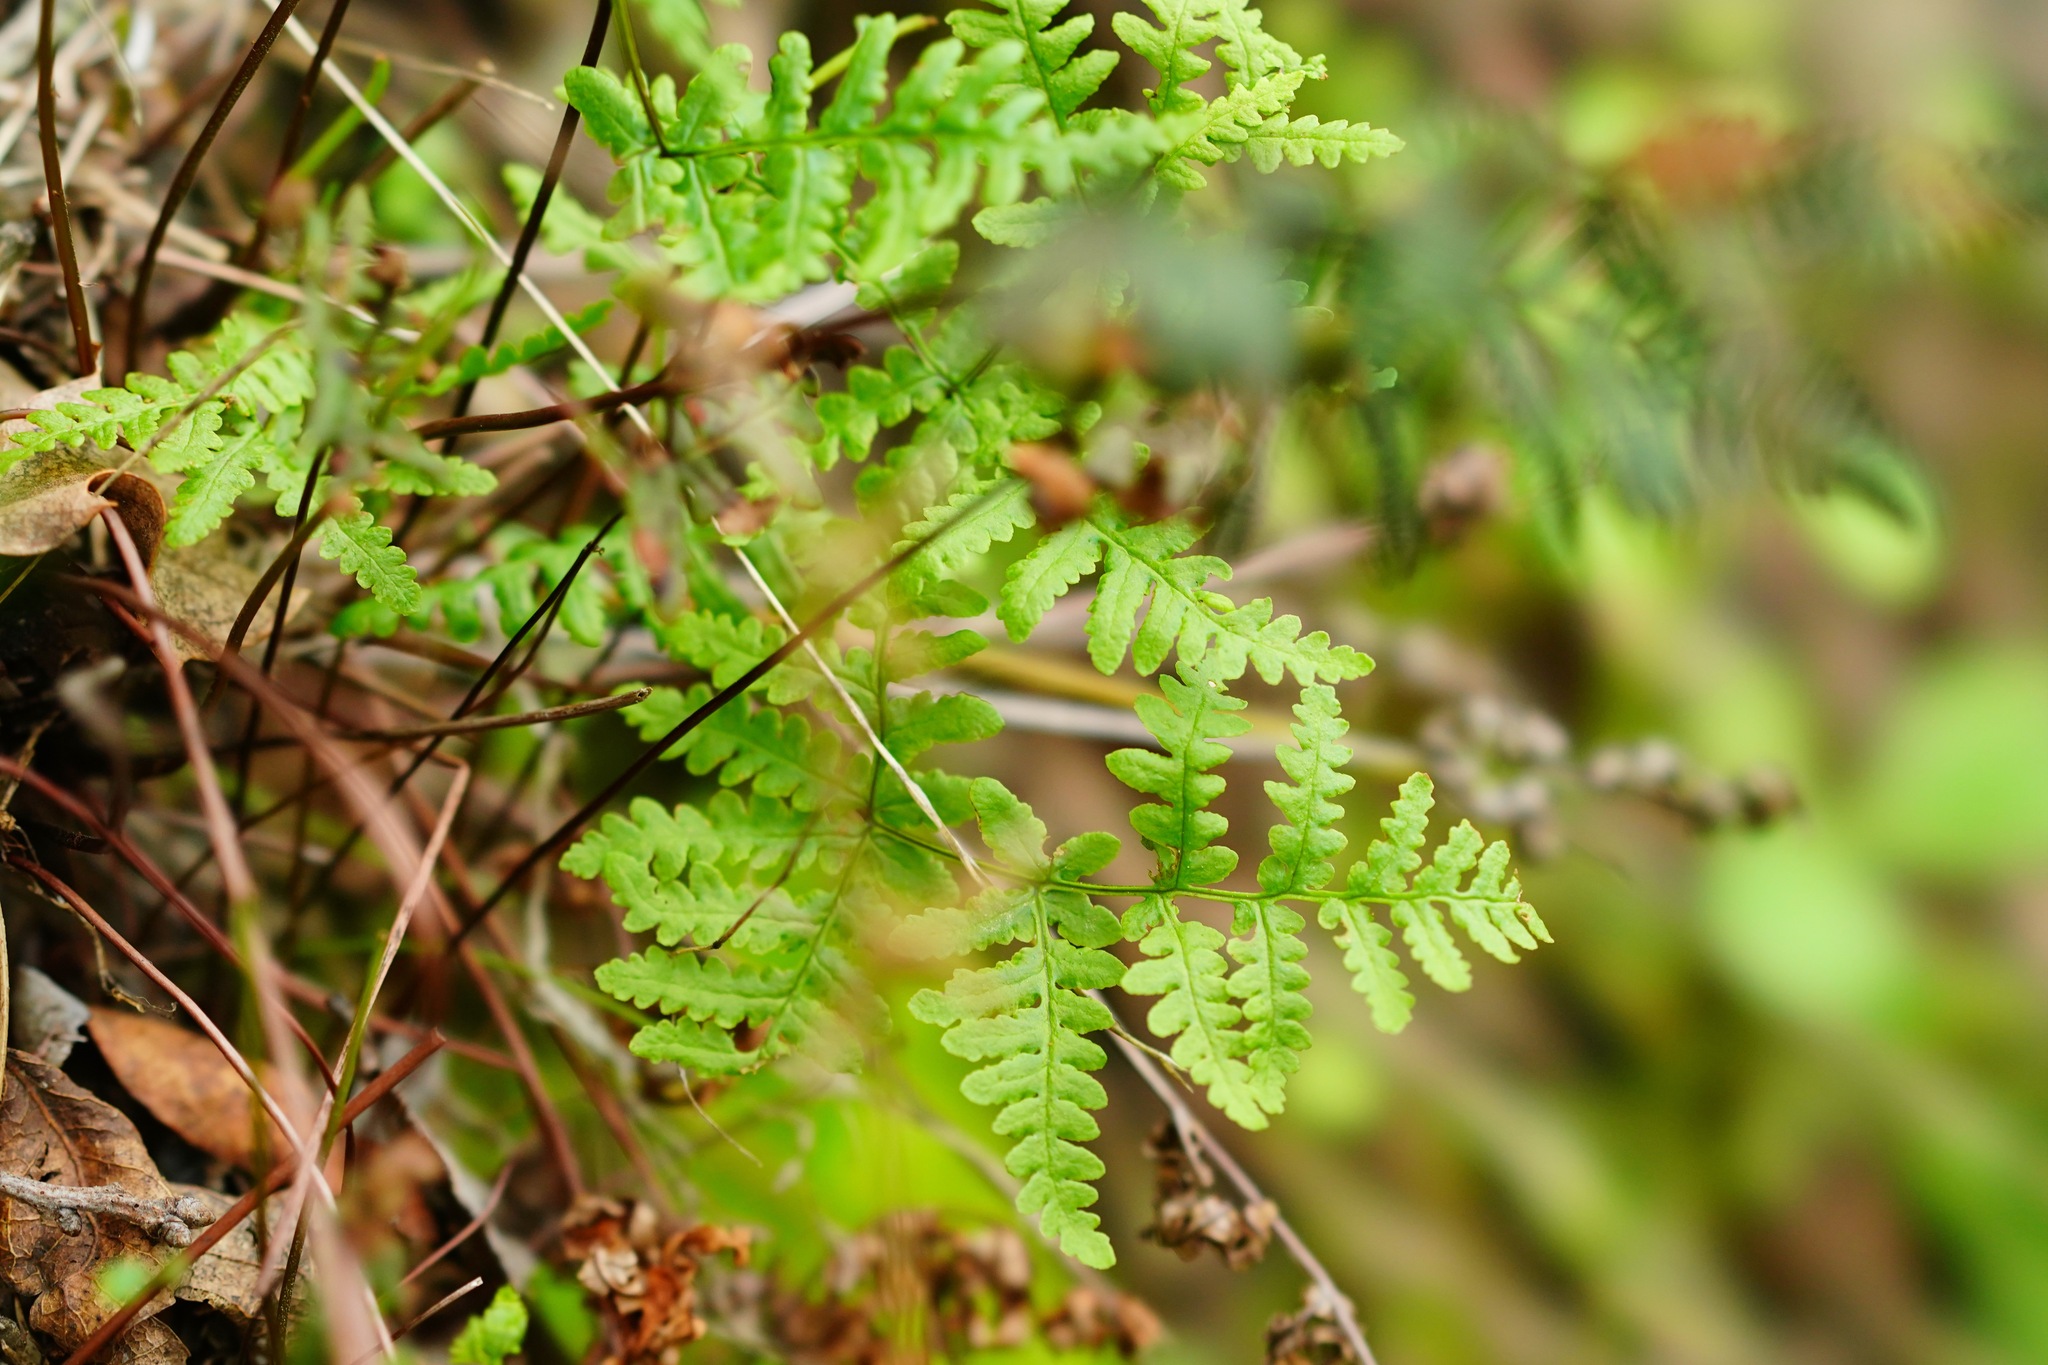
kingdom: Plantae
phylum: Tracheophyta
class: Polypodiopsida
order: Polypodiales
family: Pteridaceae
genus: Pentagramma
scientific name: Pentagramma triangularis
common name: Gold fern
